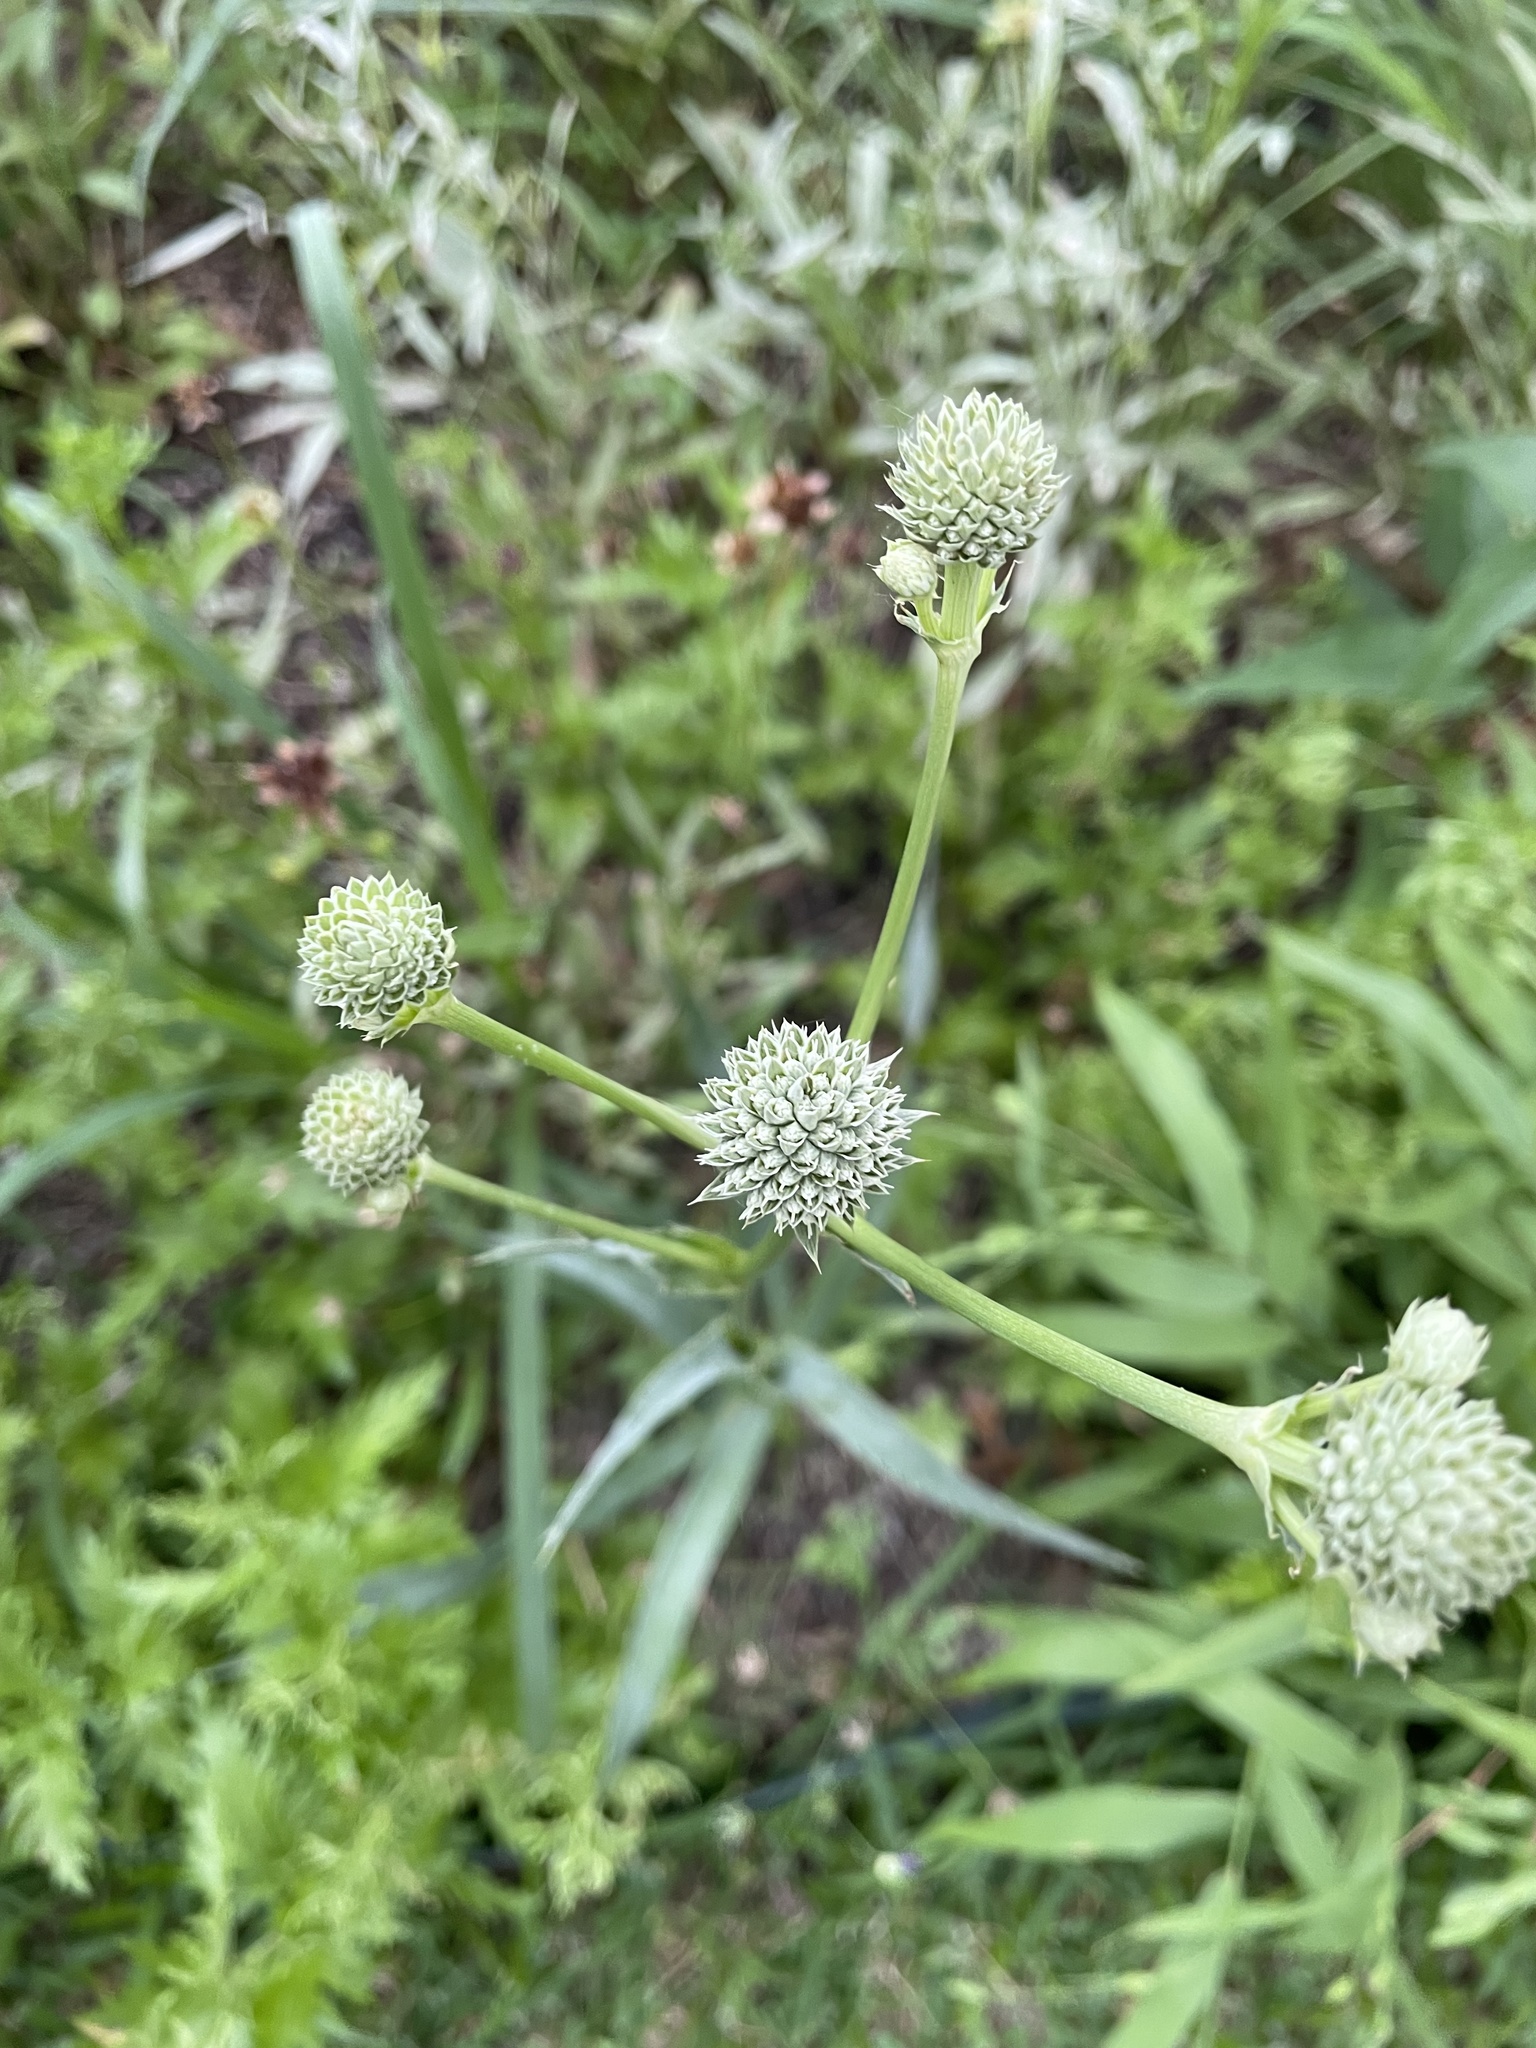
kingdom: Plantae
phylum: Tracheophyta
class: Magnoliopsida
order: Apiales
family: Apiaceae
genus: Eryngium
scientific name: Eryngium yuccifolium
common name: Button eryngo
